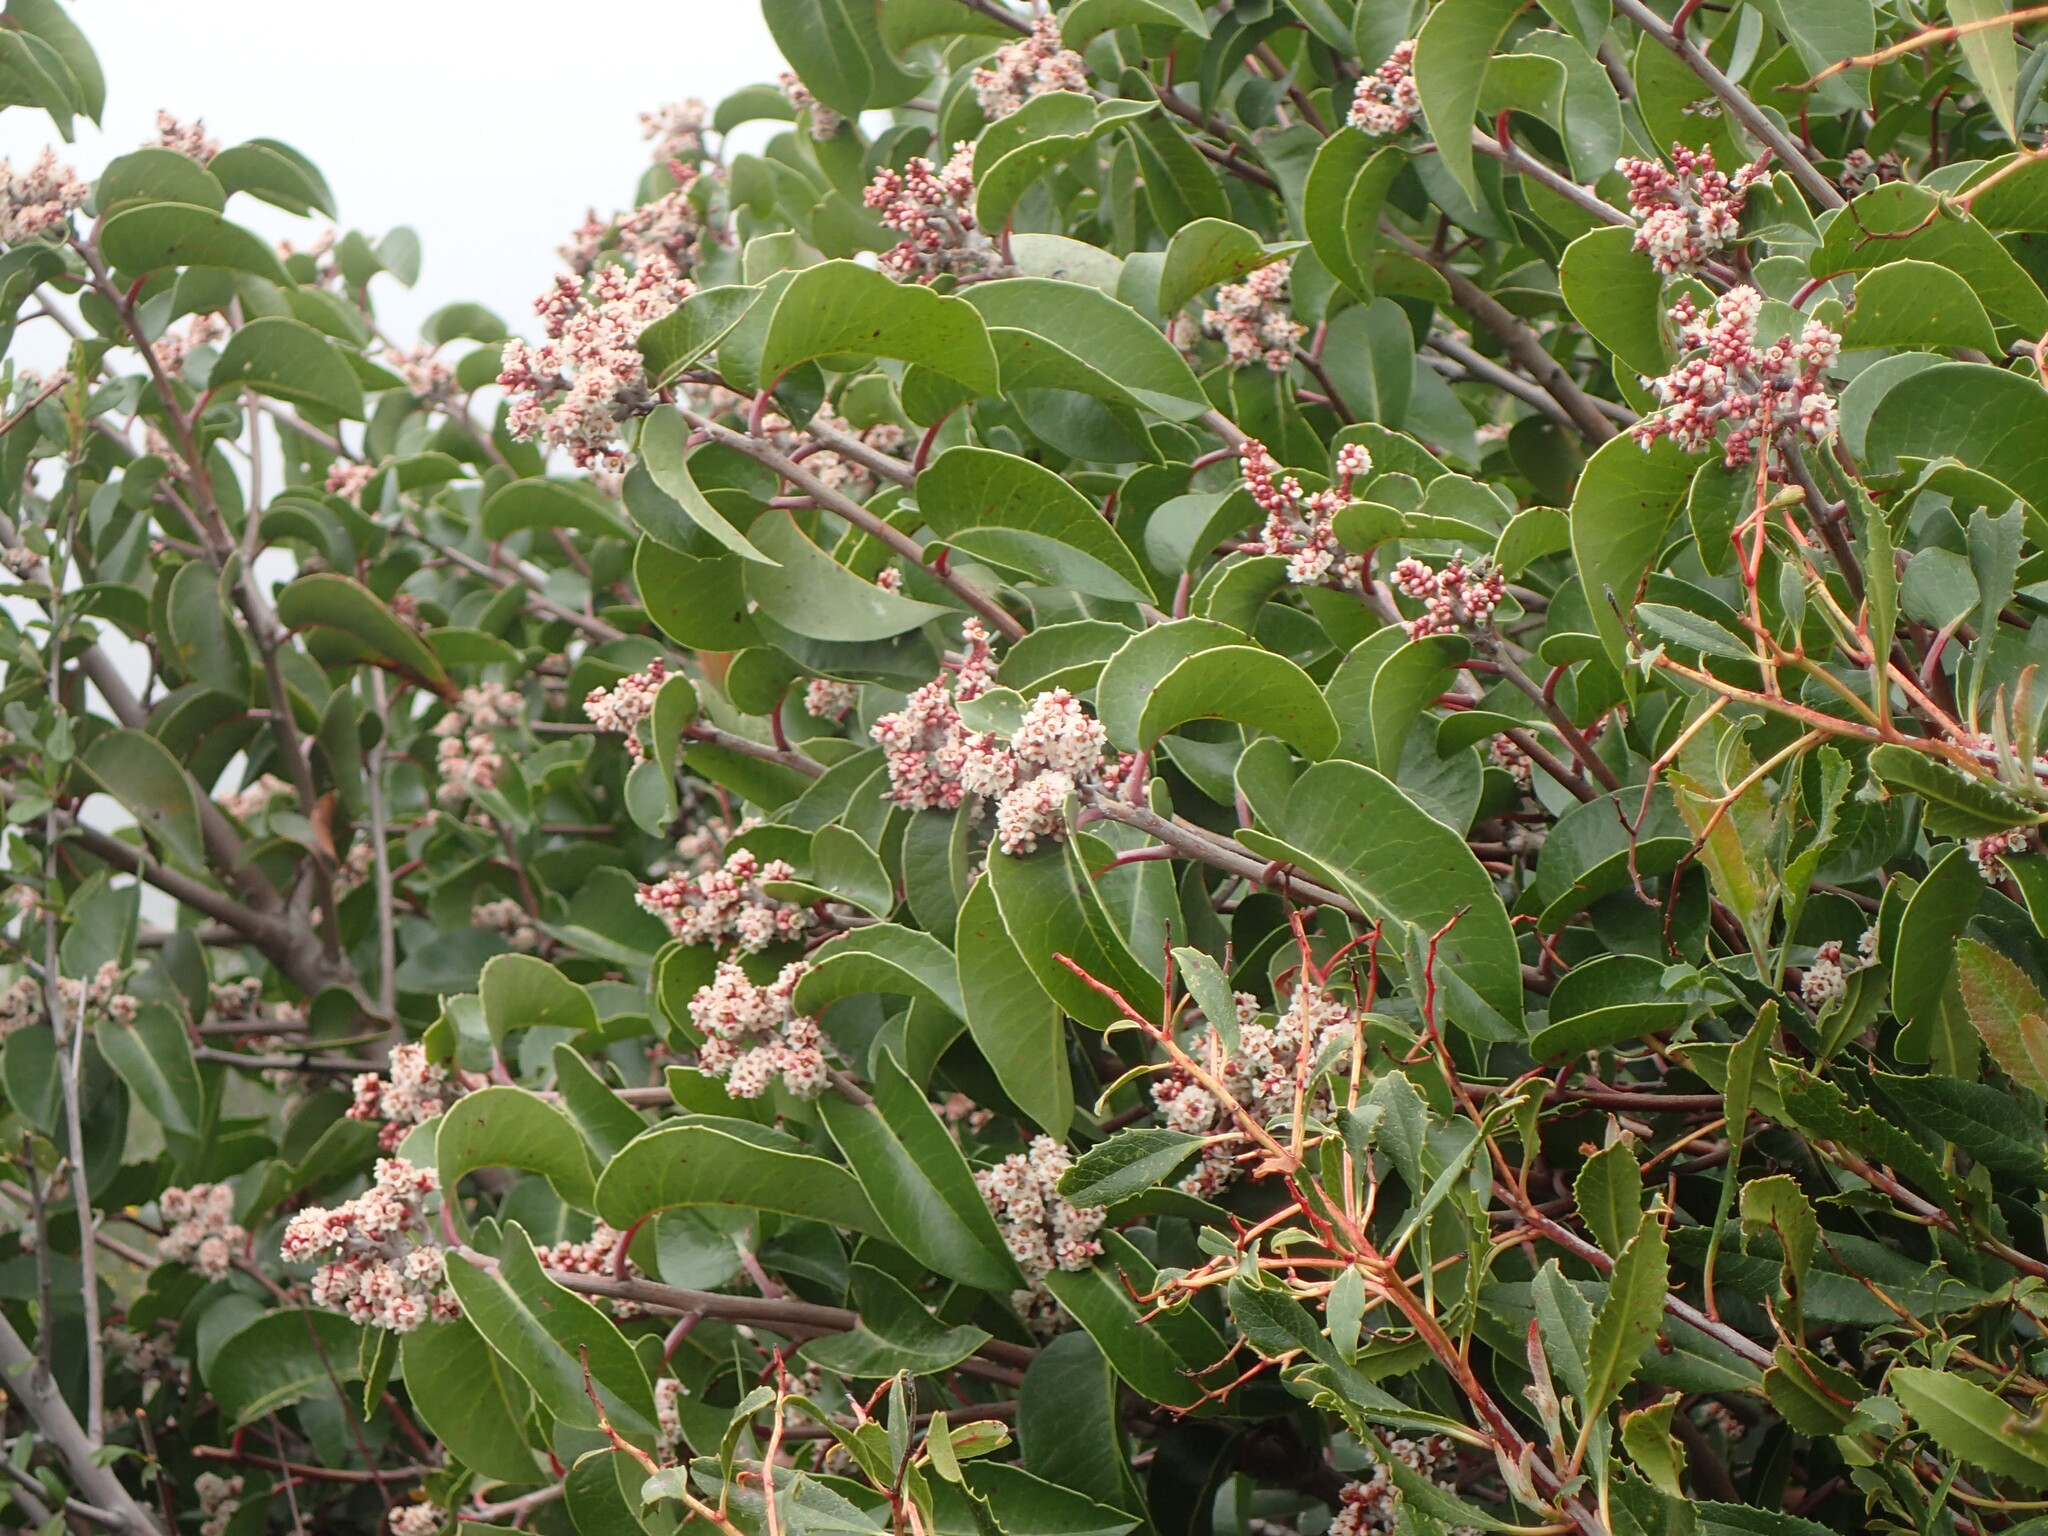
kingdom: Plantae
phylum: Tracheophyta
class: Magnoliopsida
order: Sapindales
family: Anacardiaceae
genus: Rhus
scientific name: Rhus ovata
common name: Sugar sumac
